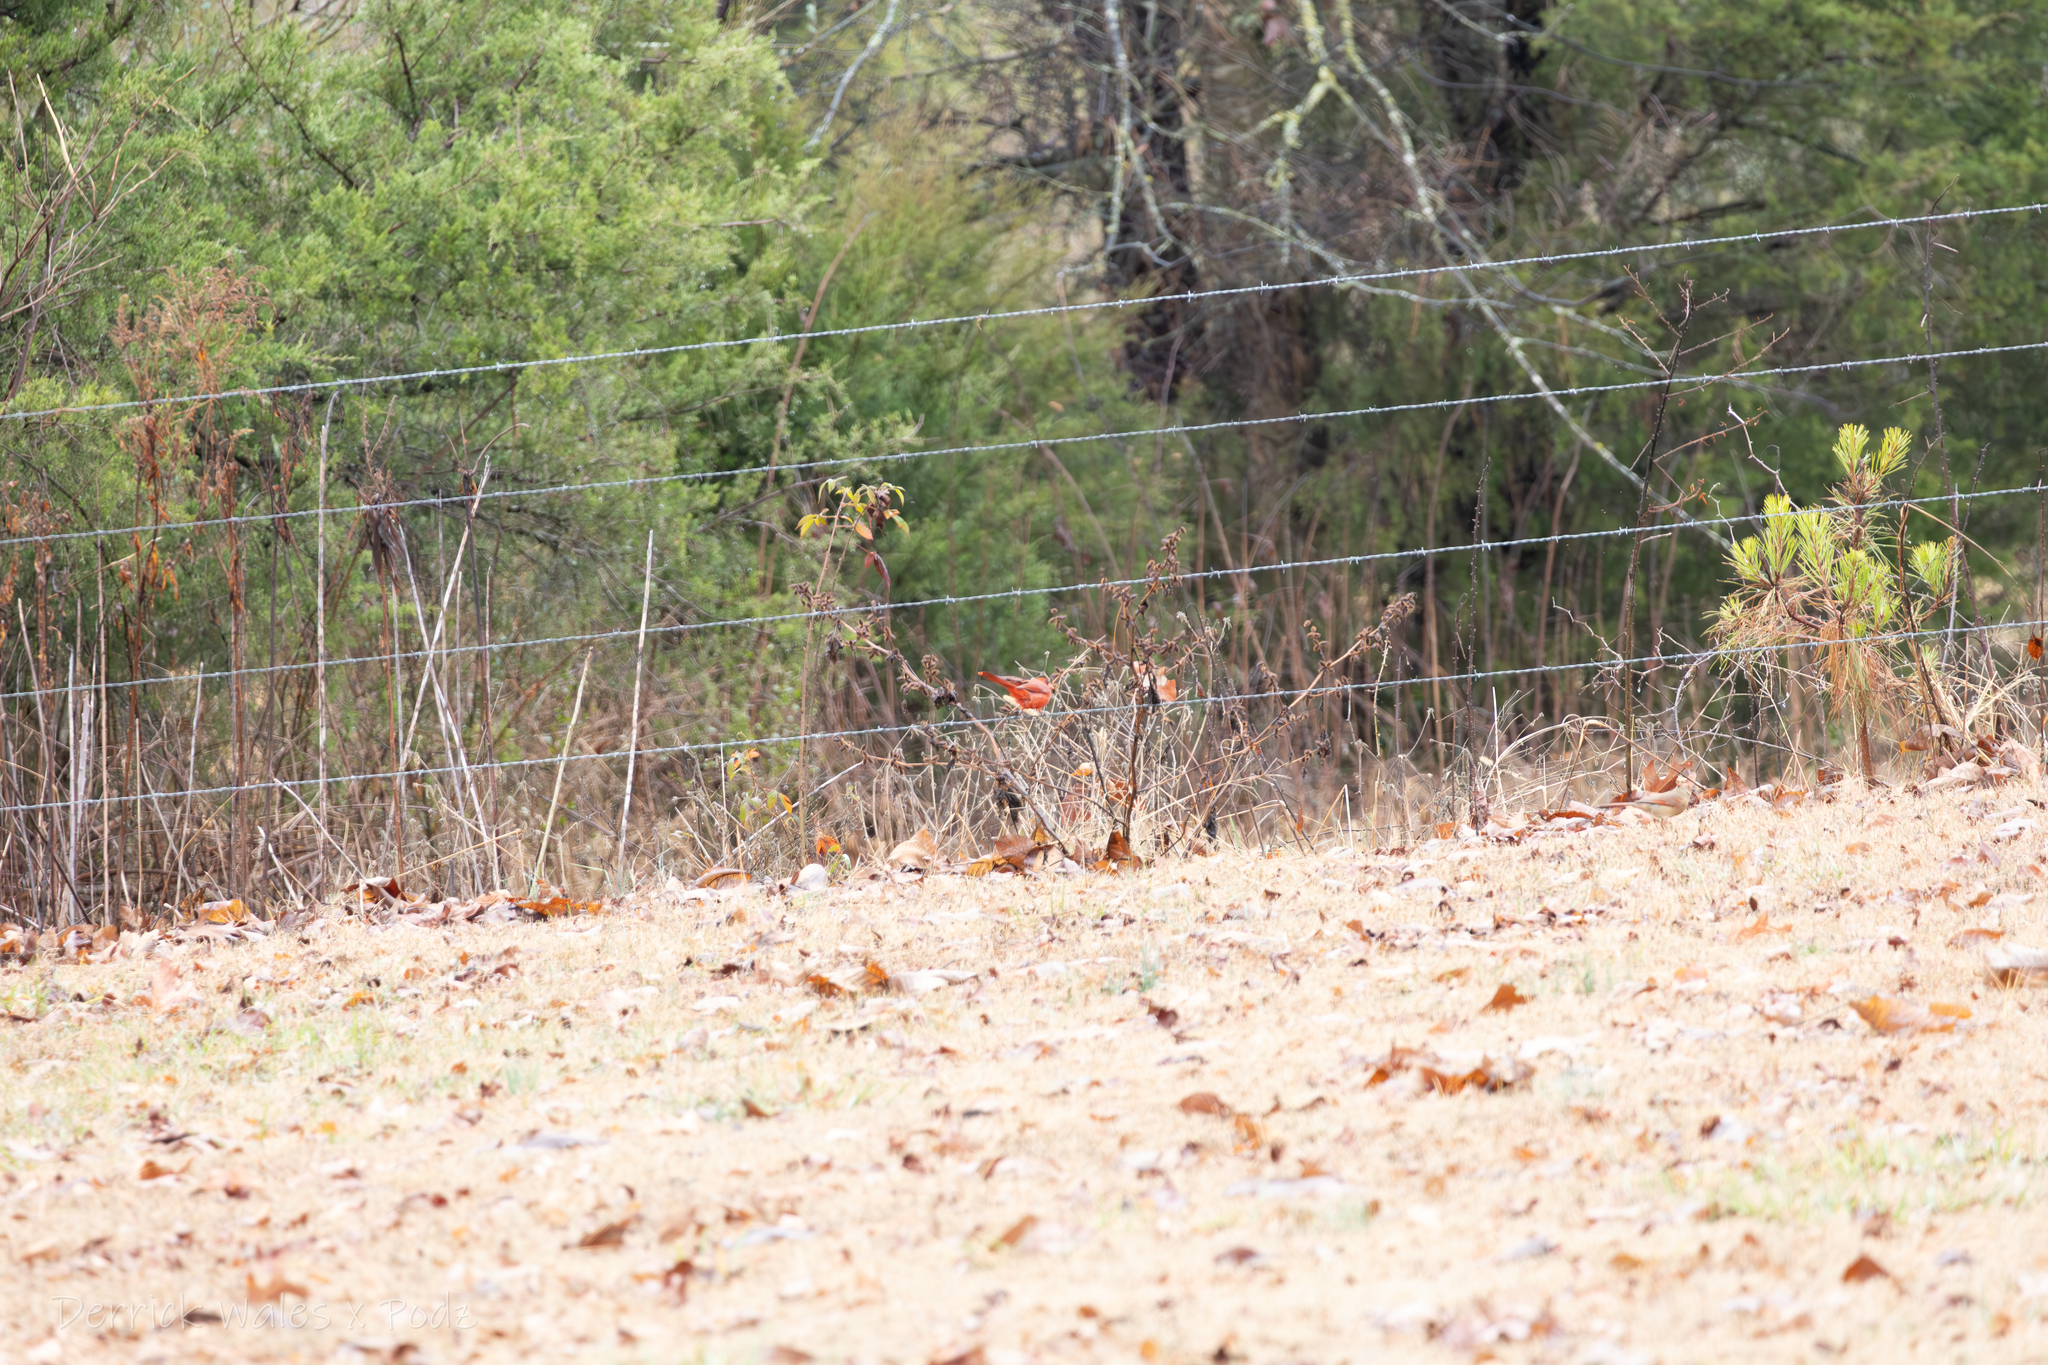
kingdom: Animalia
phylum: Chordata
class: Aves
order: Passeriformes
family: Cardinalidae
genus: Cardinalis
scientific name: Cardinalis cardinalis
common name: Northern cardinal
